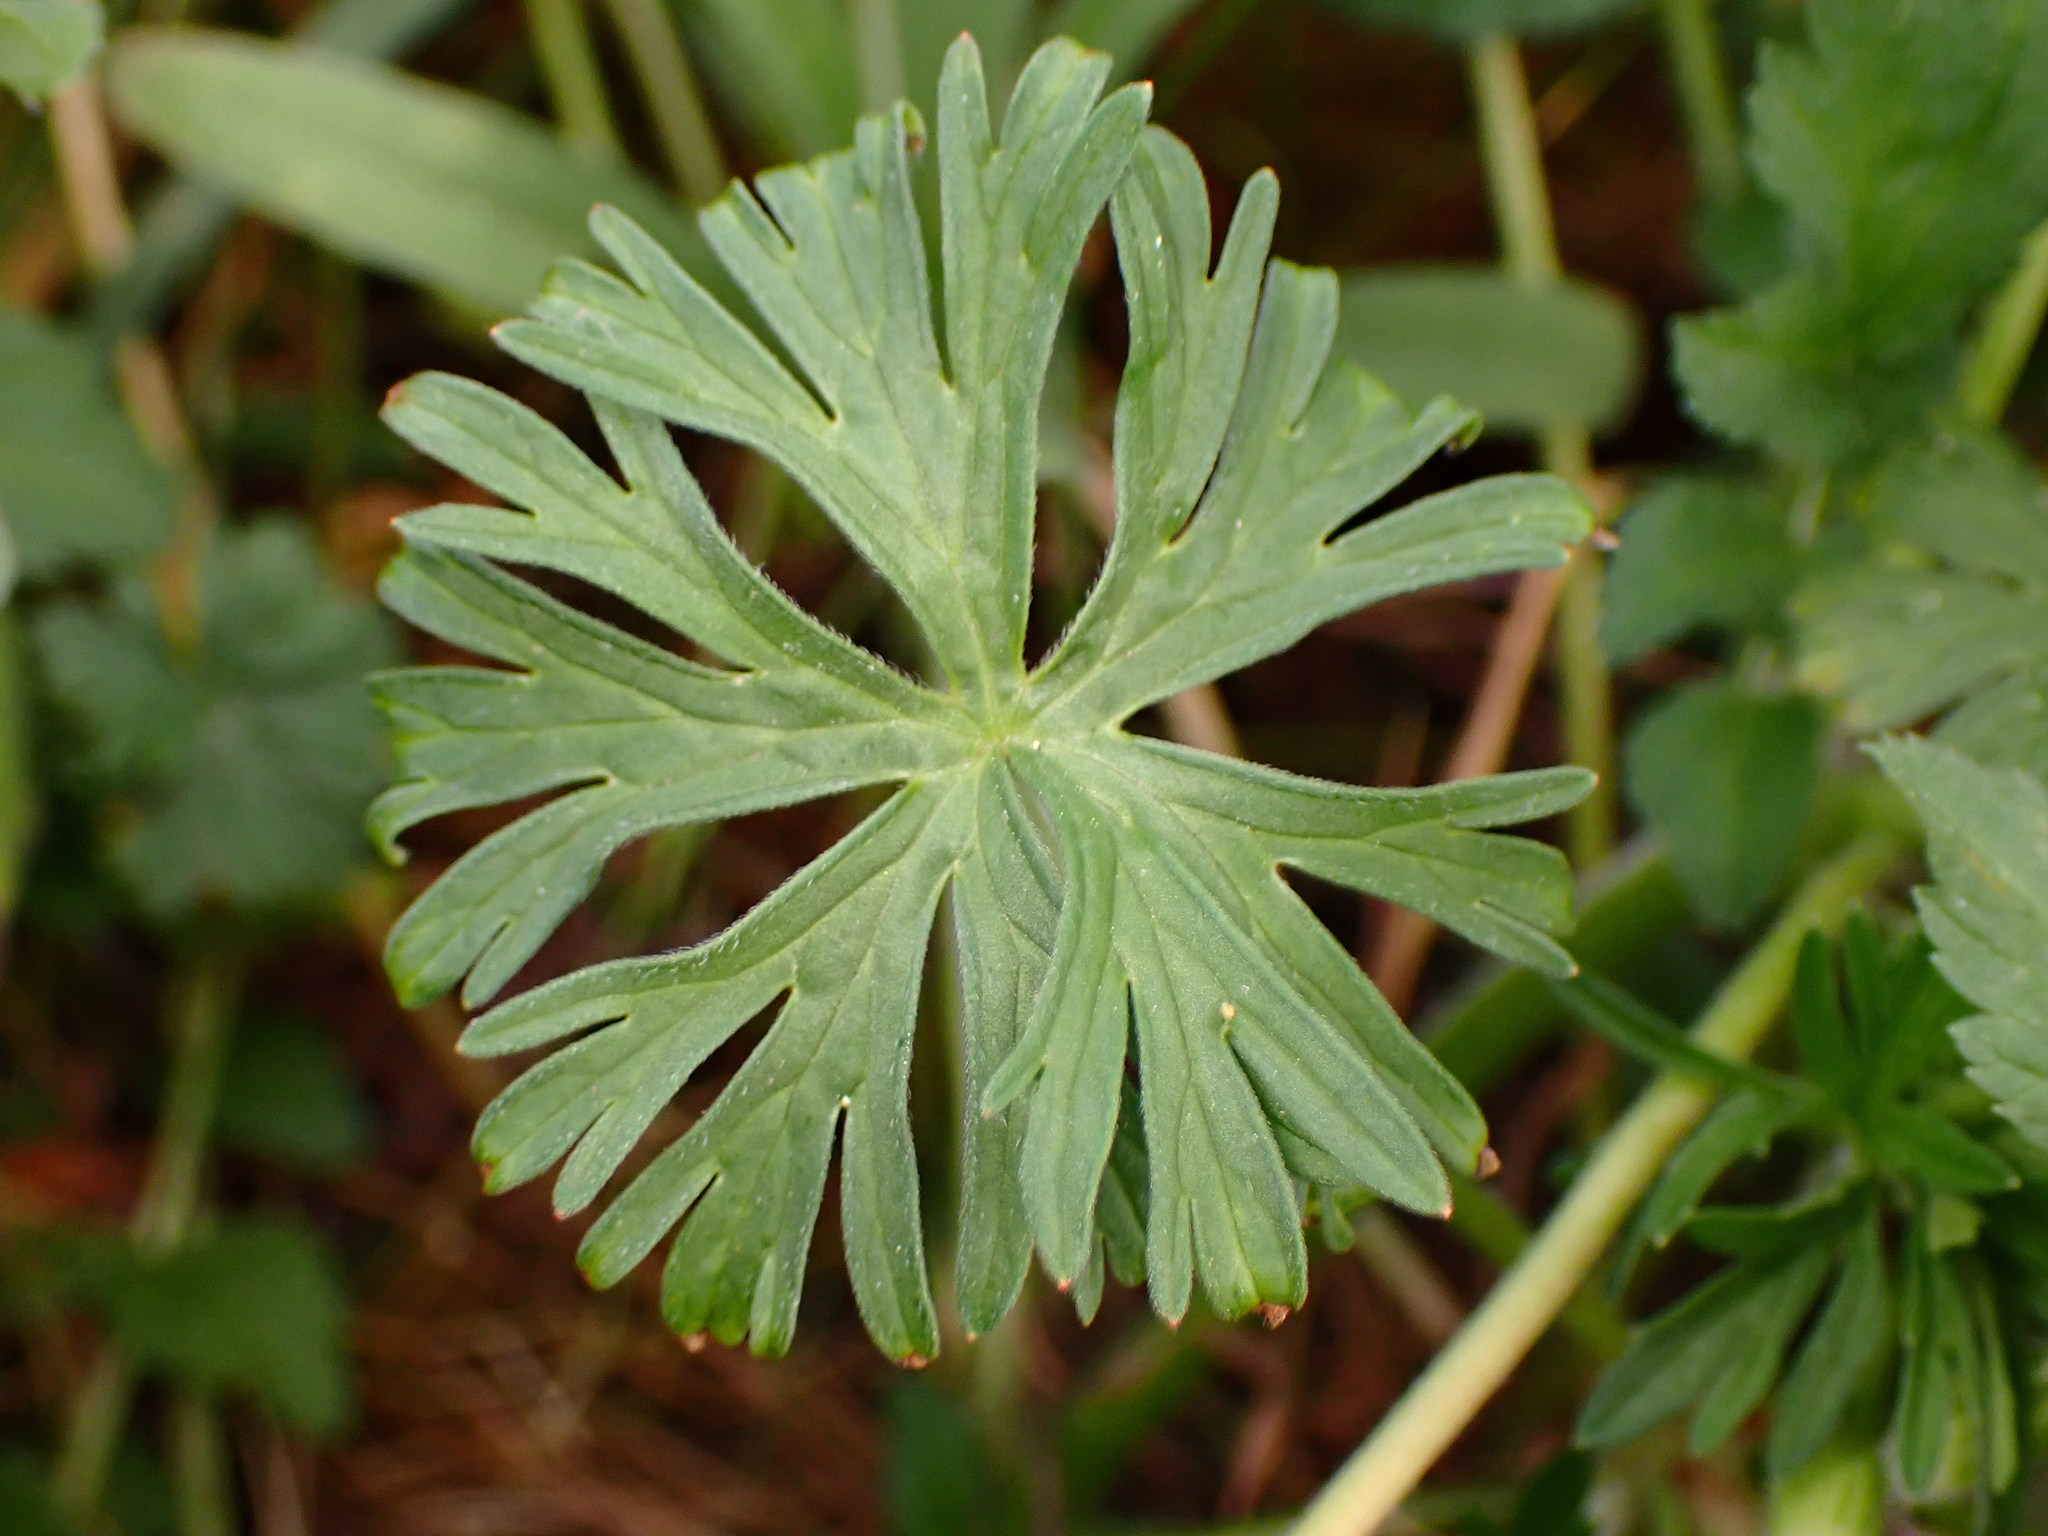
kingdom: Plantae
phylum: Tracheophyta
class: Magnoliopsida
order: Geraniales
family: Geraniaceae
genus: Geranium
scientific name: Geranium dissectum
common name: Cut-leaved crane's-bill
